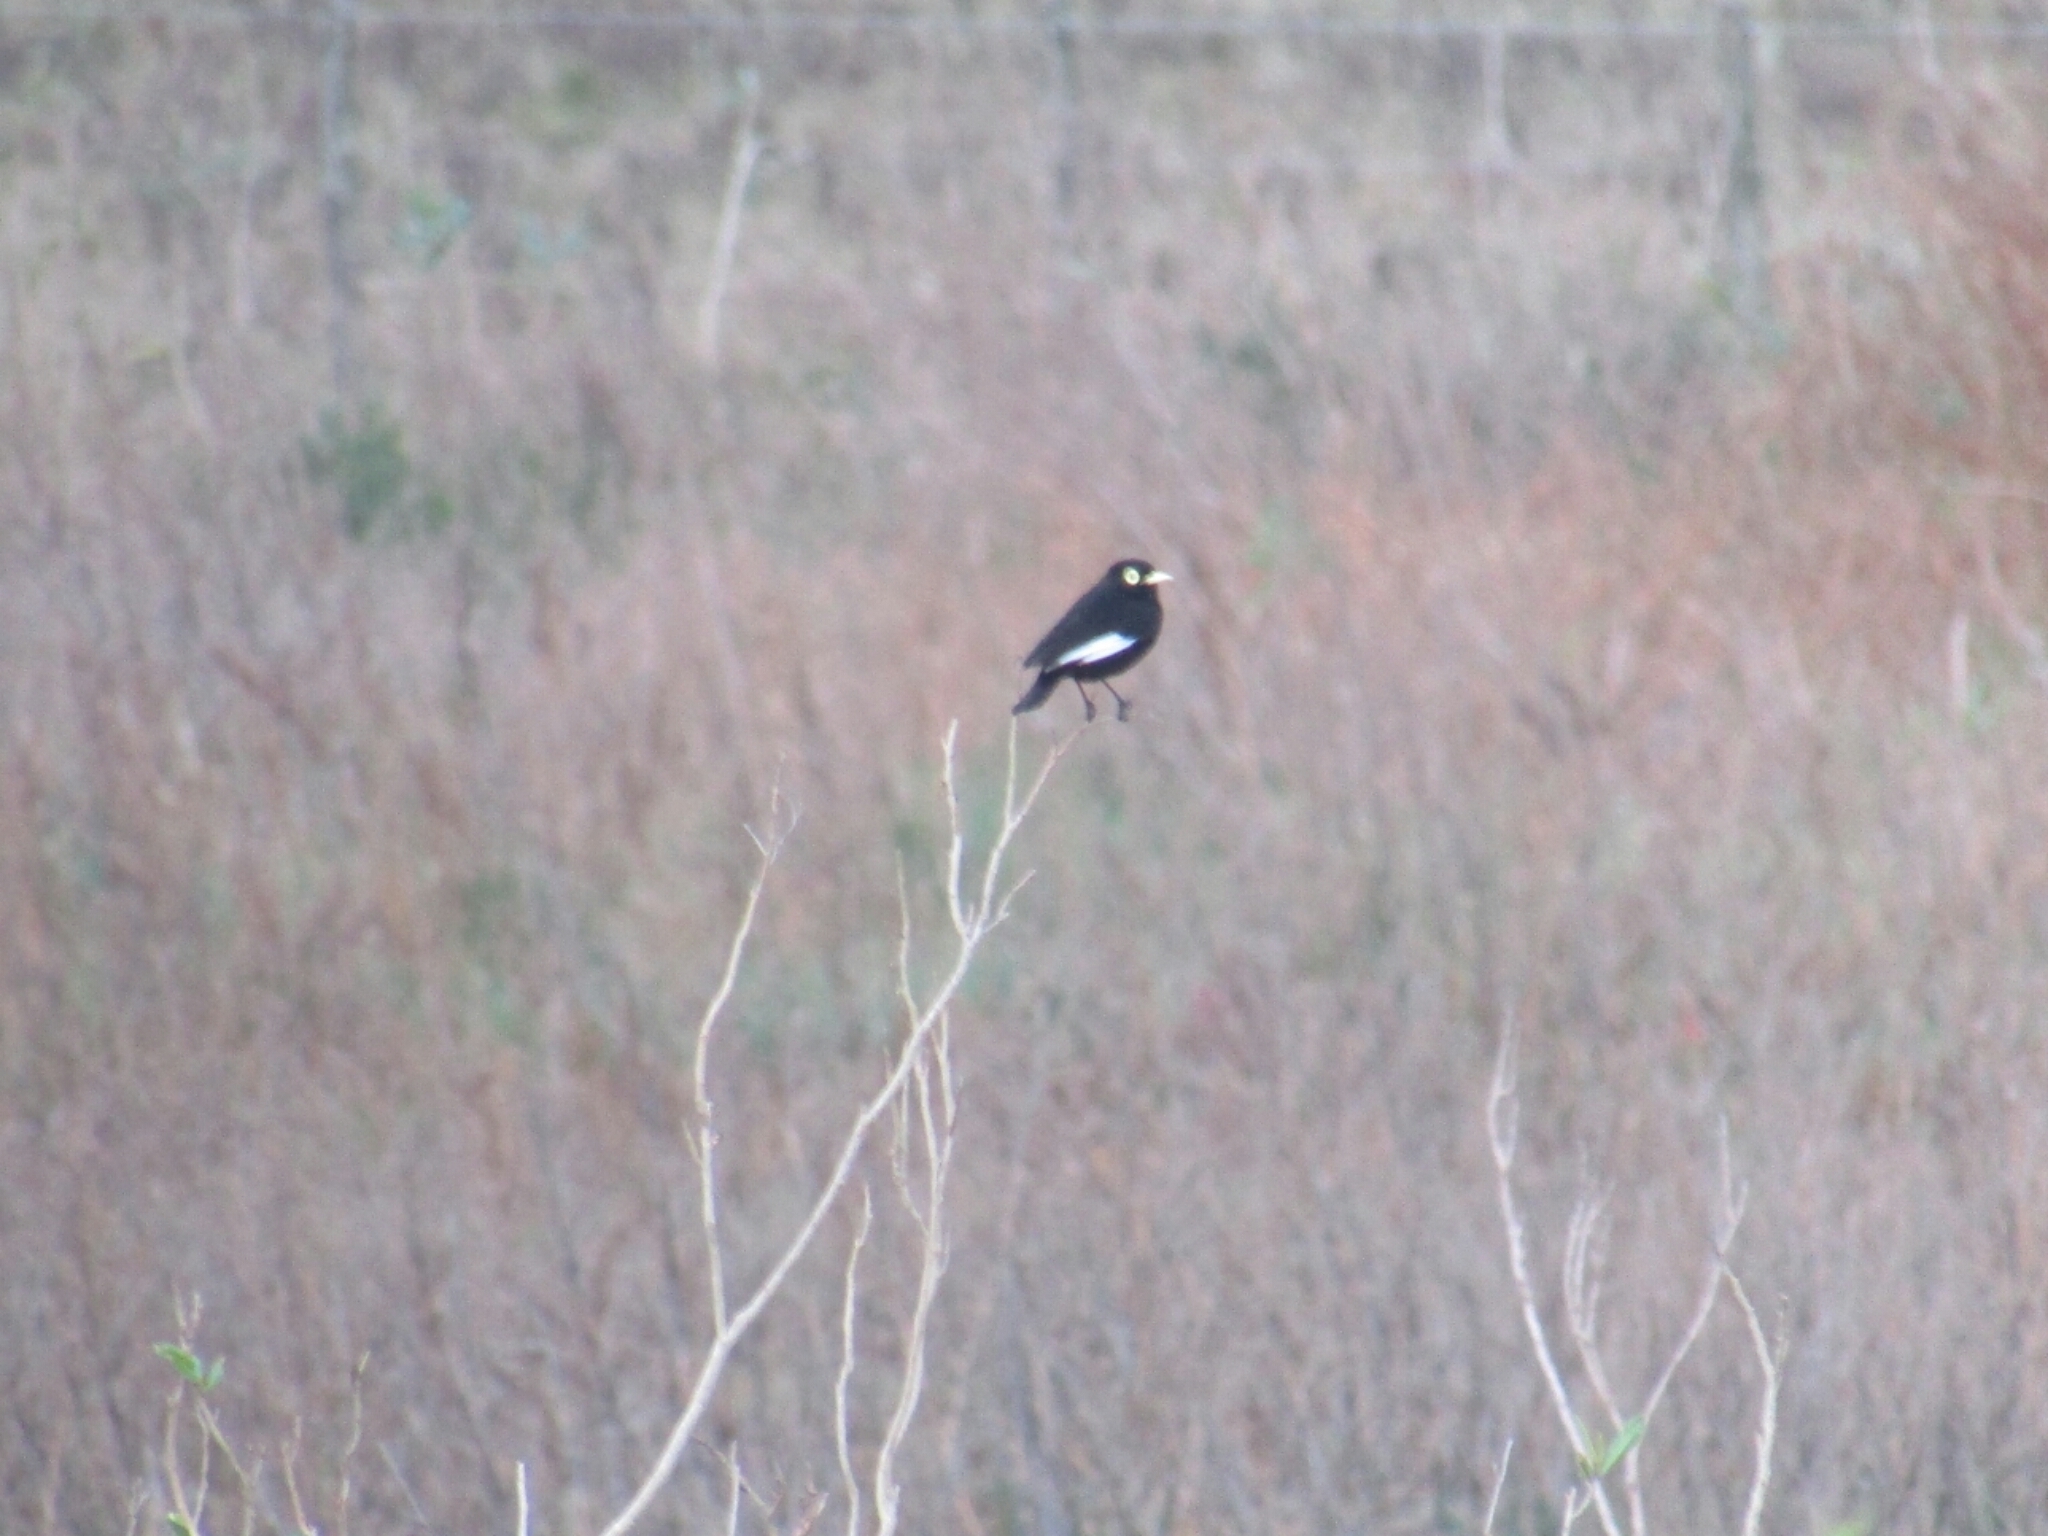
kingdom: Animalia
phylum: Chordata
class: Aves
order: Passeriformes
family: Tyrannidae
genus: Hymenops
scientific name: Hymenops perspicillatus
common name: Spectacled tyrant
